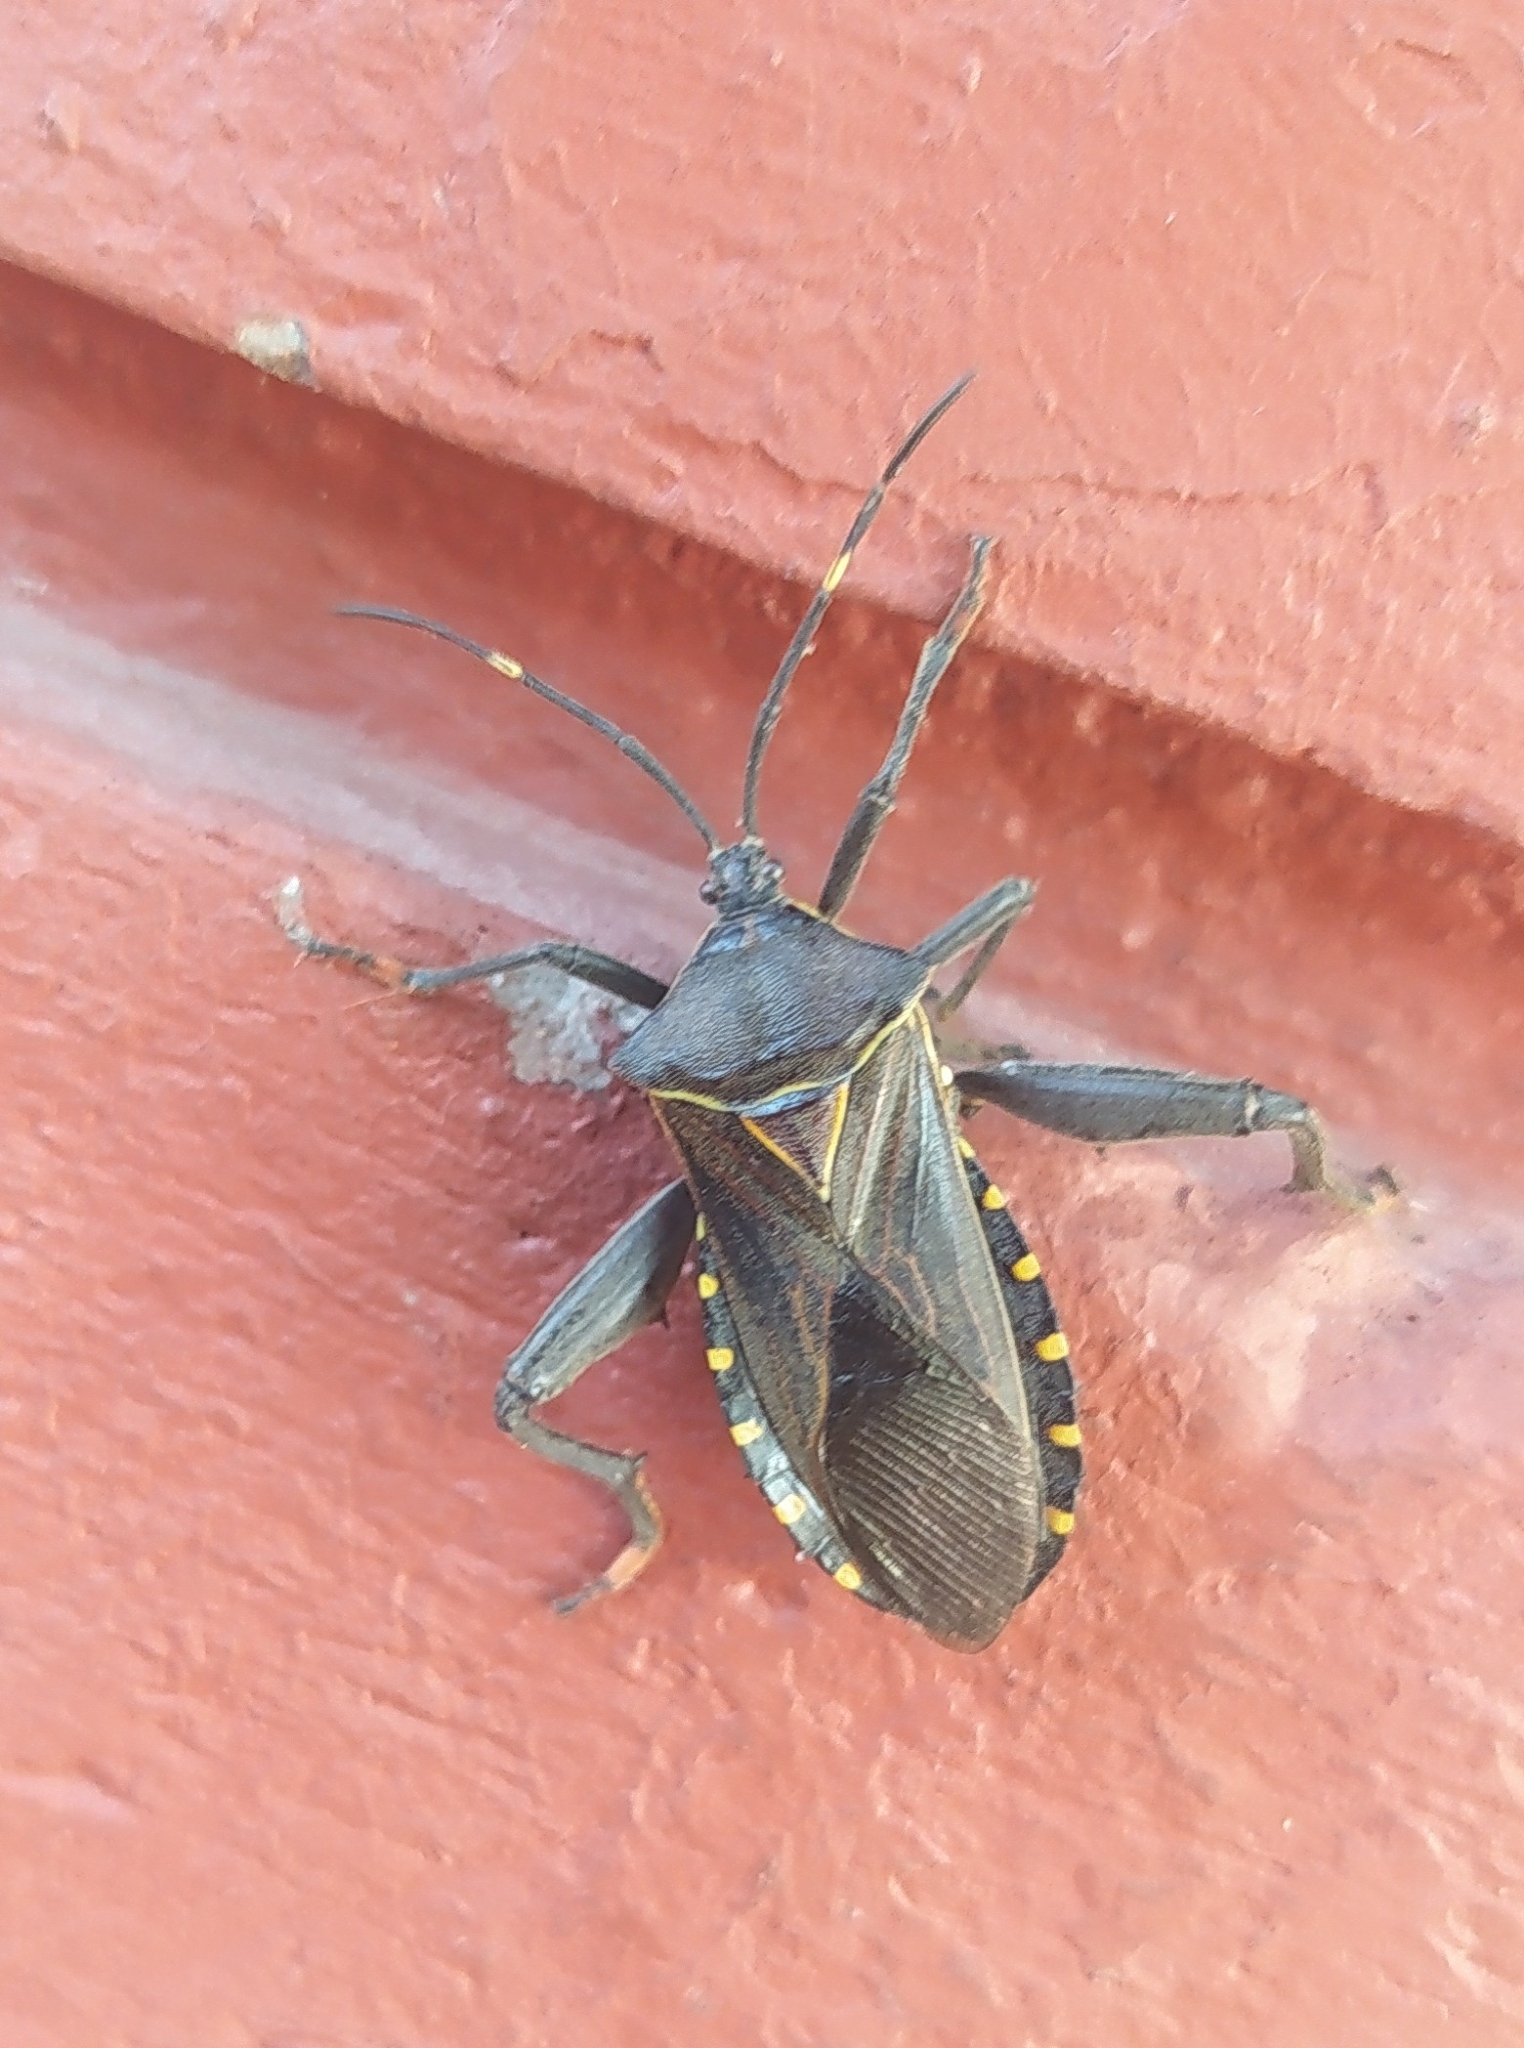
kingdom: Animalia
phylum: Arthropoda
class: Insecta
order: Hemiptera
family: Coreidae
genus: Pachylis
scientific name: Pachylis argentinus
